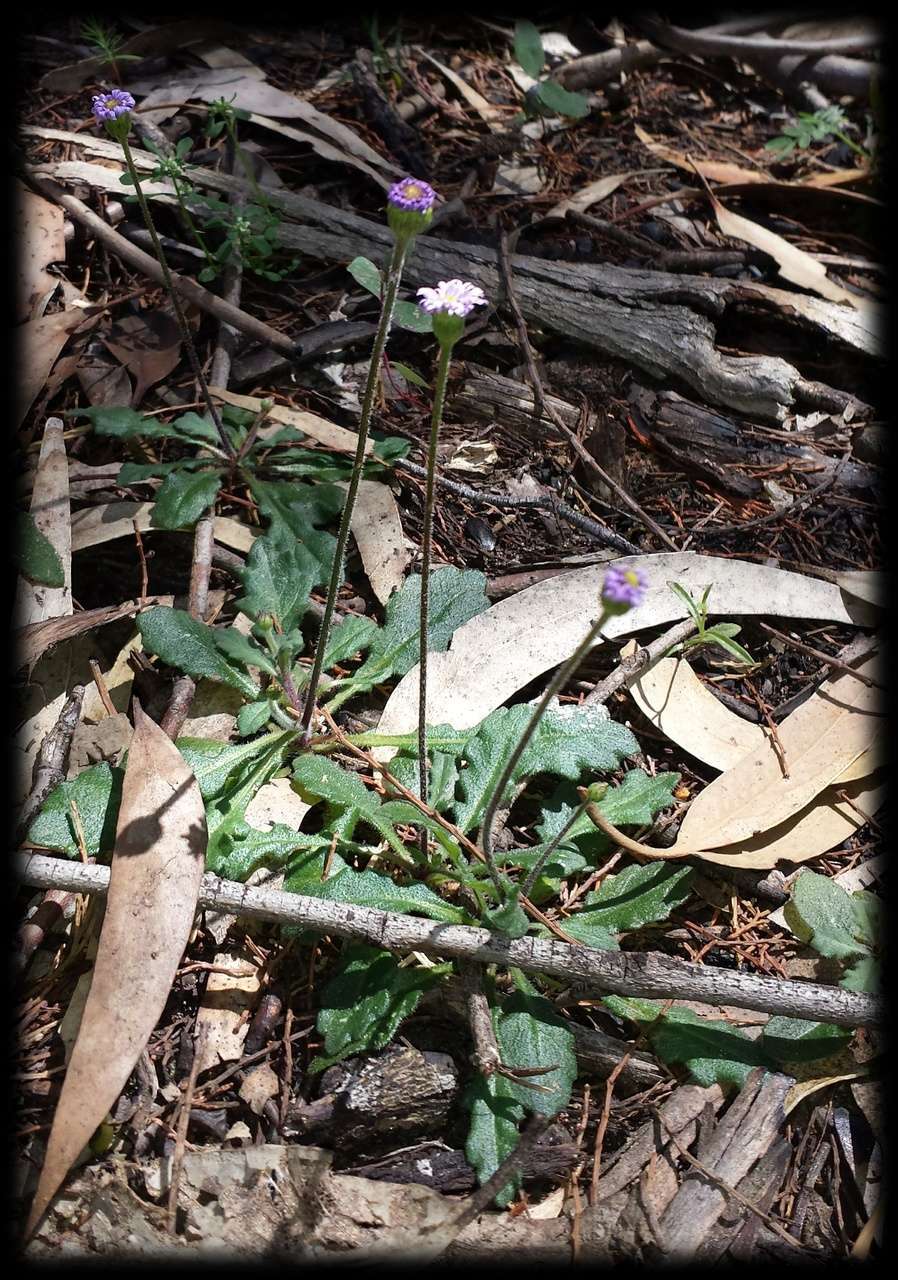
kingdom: Plantae
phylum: Tracheophyta
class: Magnoliopsida
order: Asterales
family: Asteraceae
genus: Lagenophora
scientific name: Lagenophora stipitata
